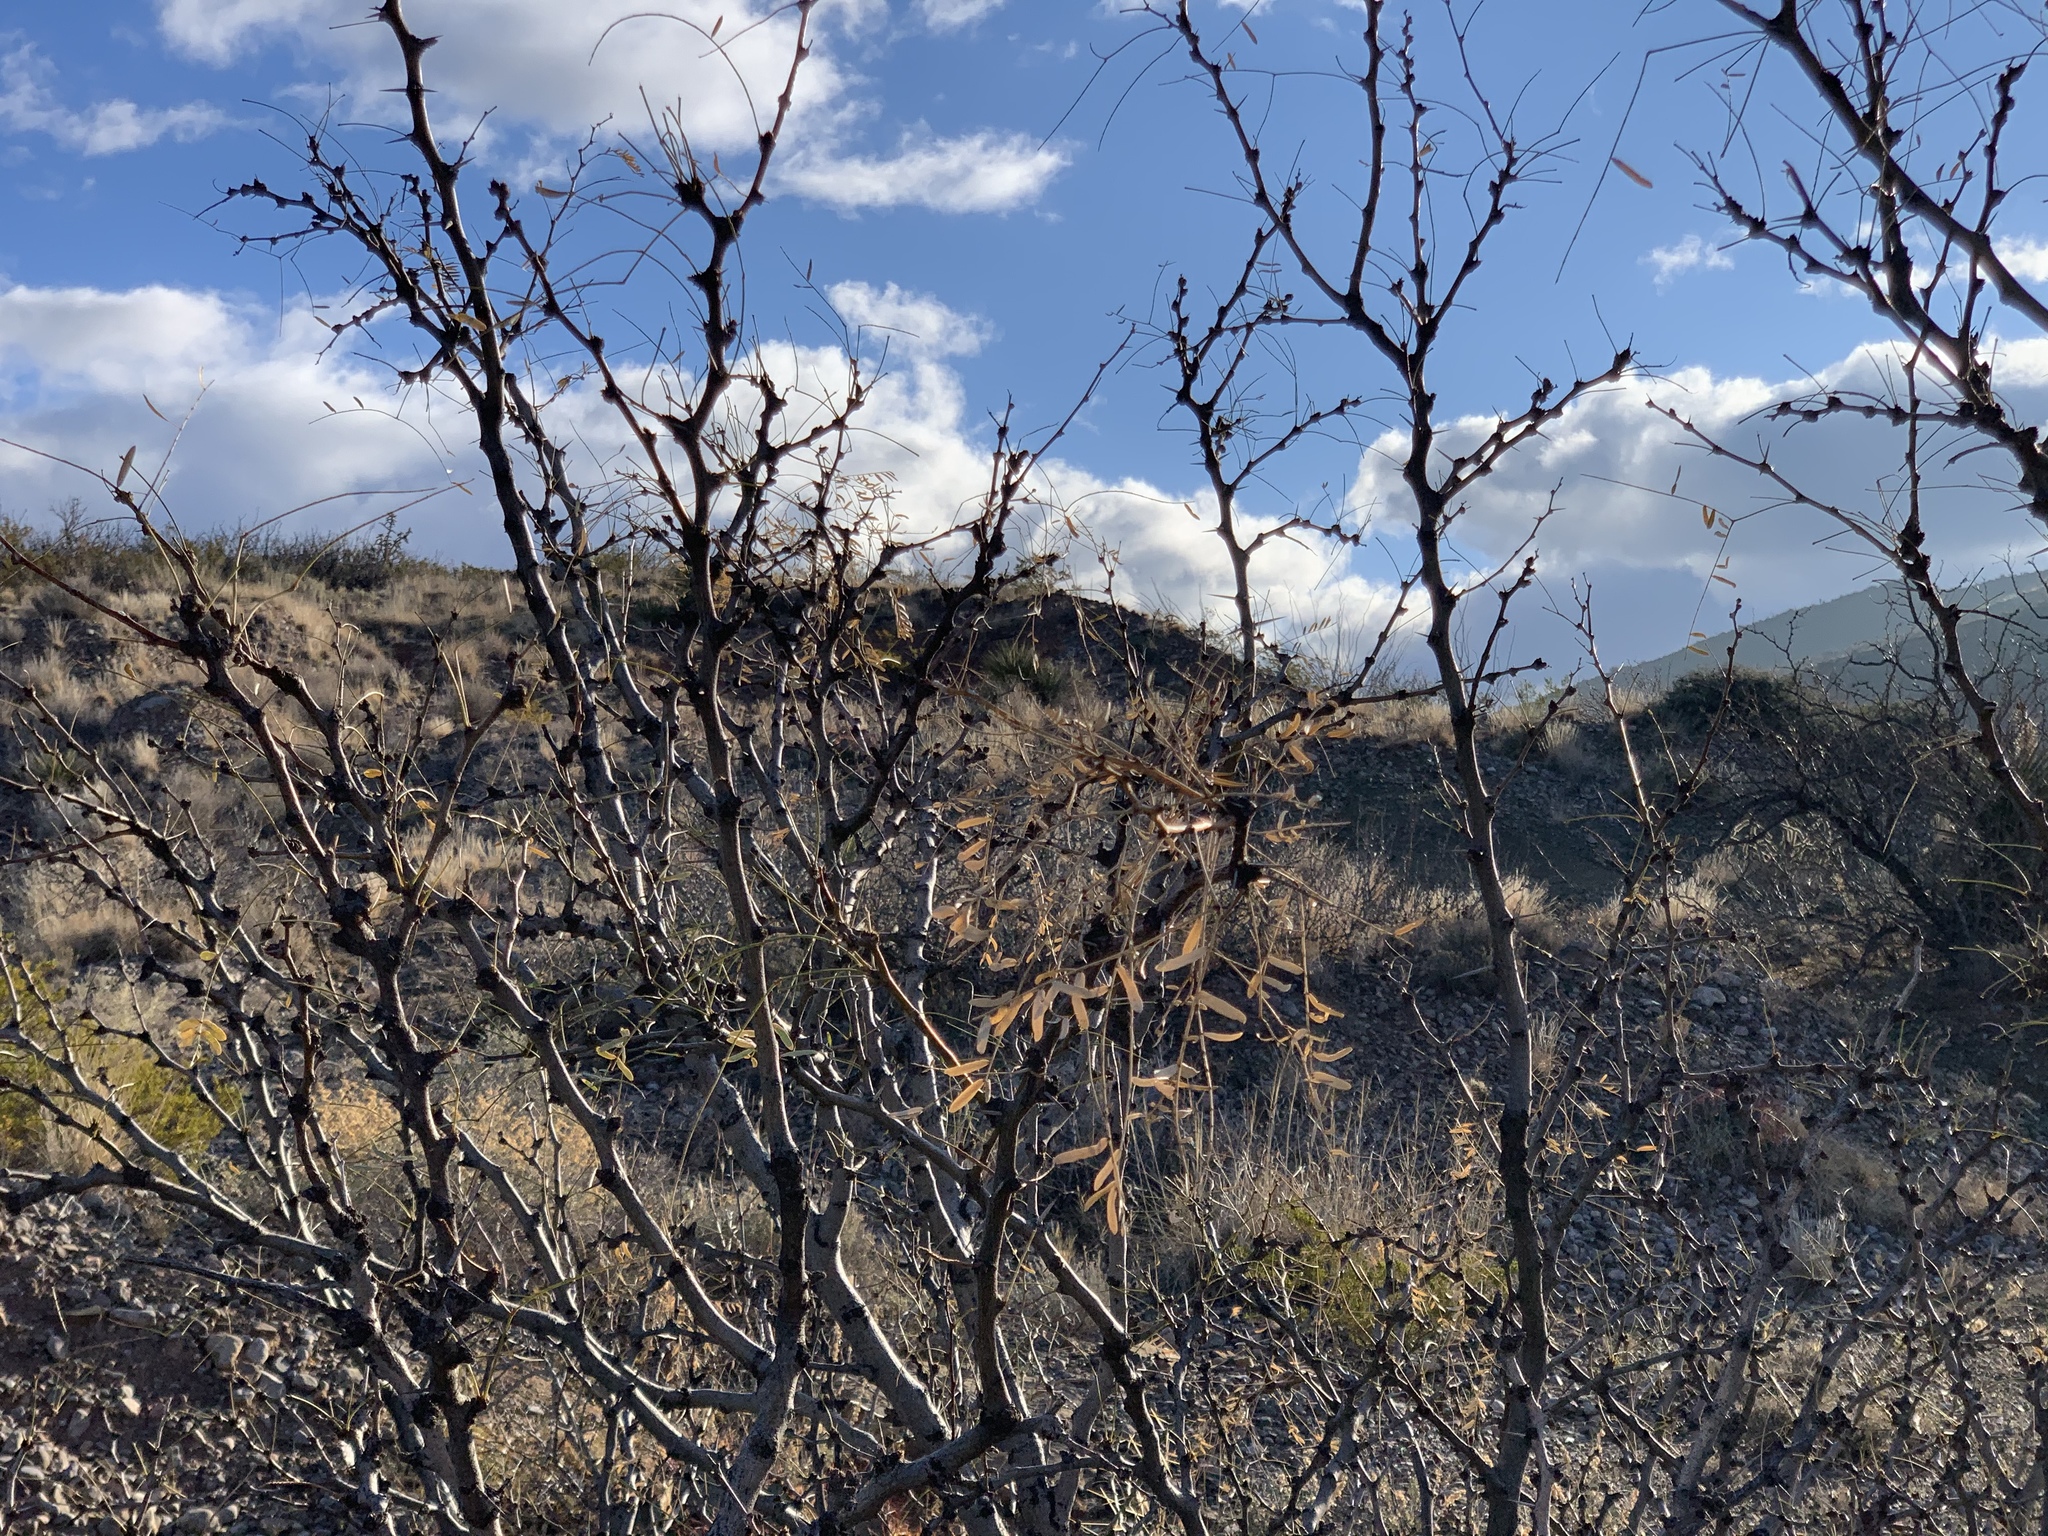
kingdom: Plantae
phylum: Tracheophyta
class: Magnoliopsida
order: Fabales
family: Fabaceae
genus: Prosopis
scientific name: Prosopis glandulosa
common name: Honey mesquite
